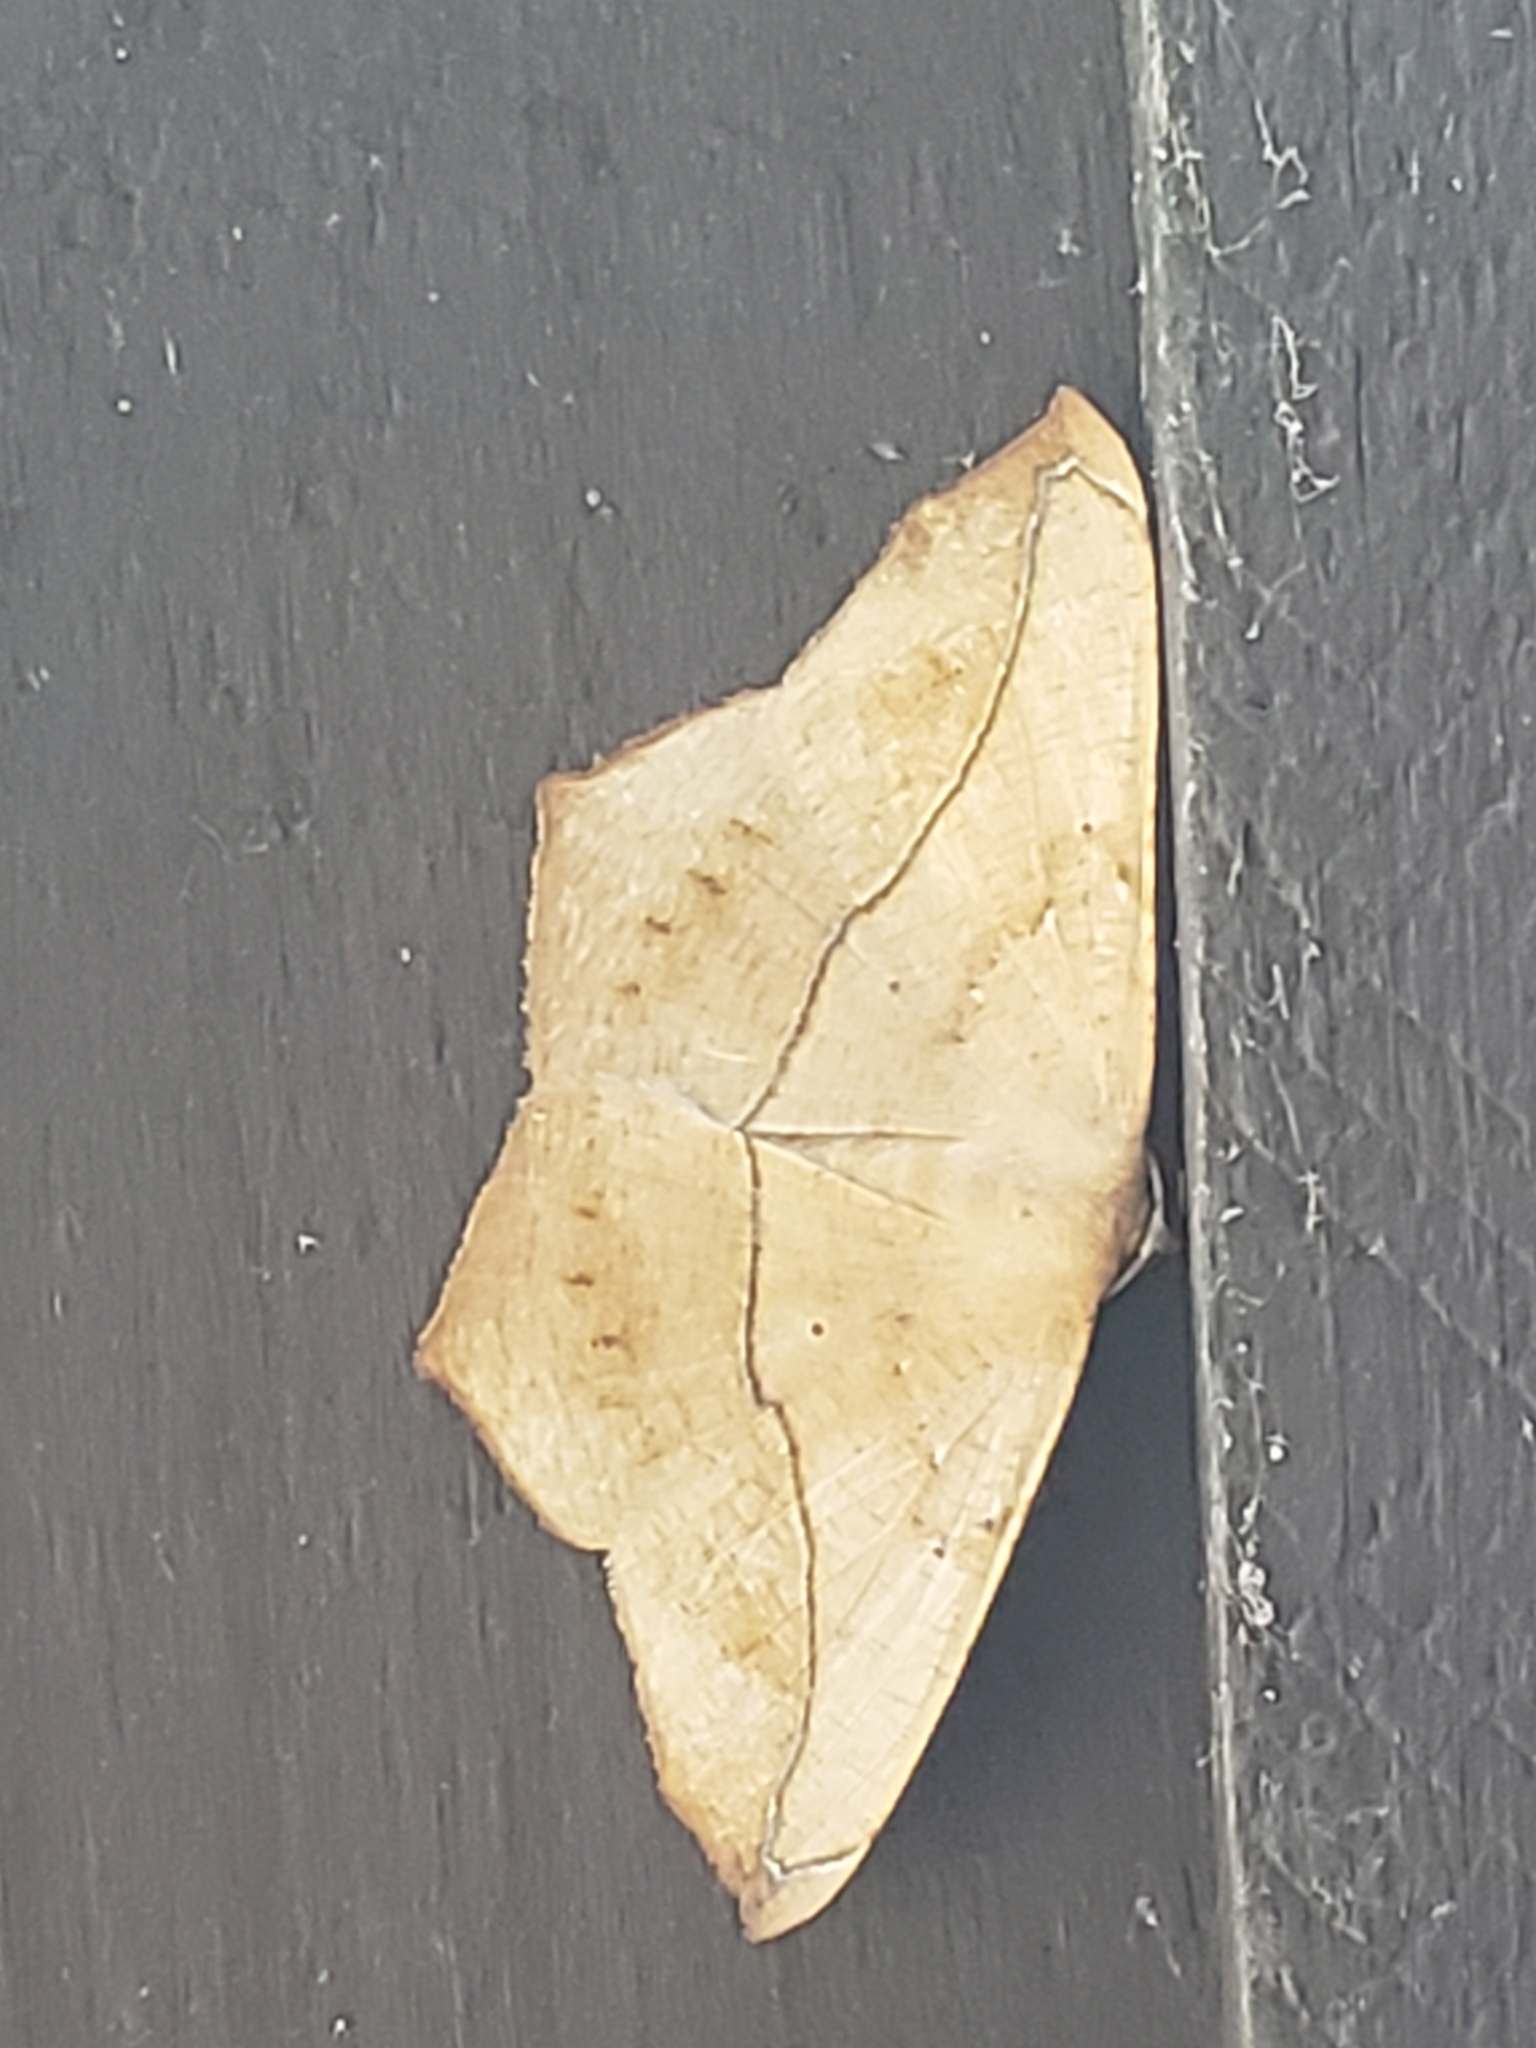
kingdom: Animalia
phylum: Arthropoda
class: Insecta
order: Lepidoptera
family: Geometridae
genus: Prochoerodes
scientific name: Prochoerodes lineola
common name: Large maple spanworm
